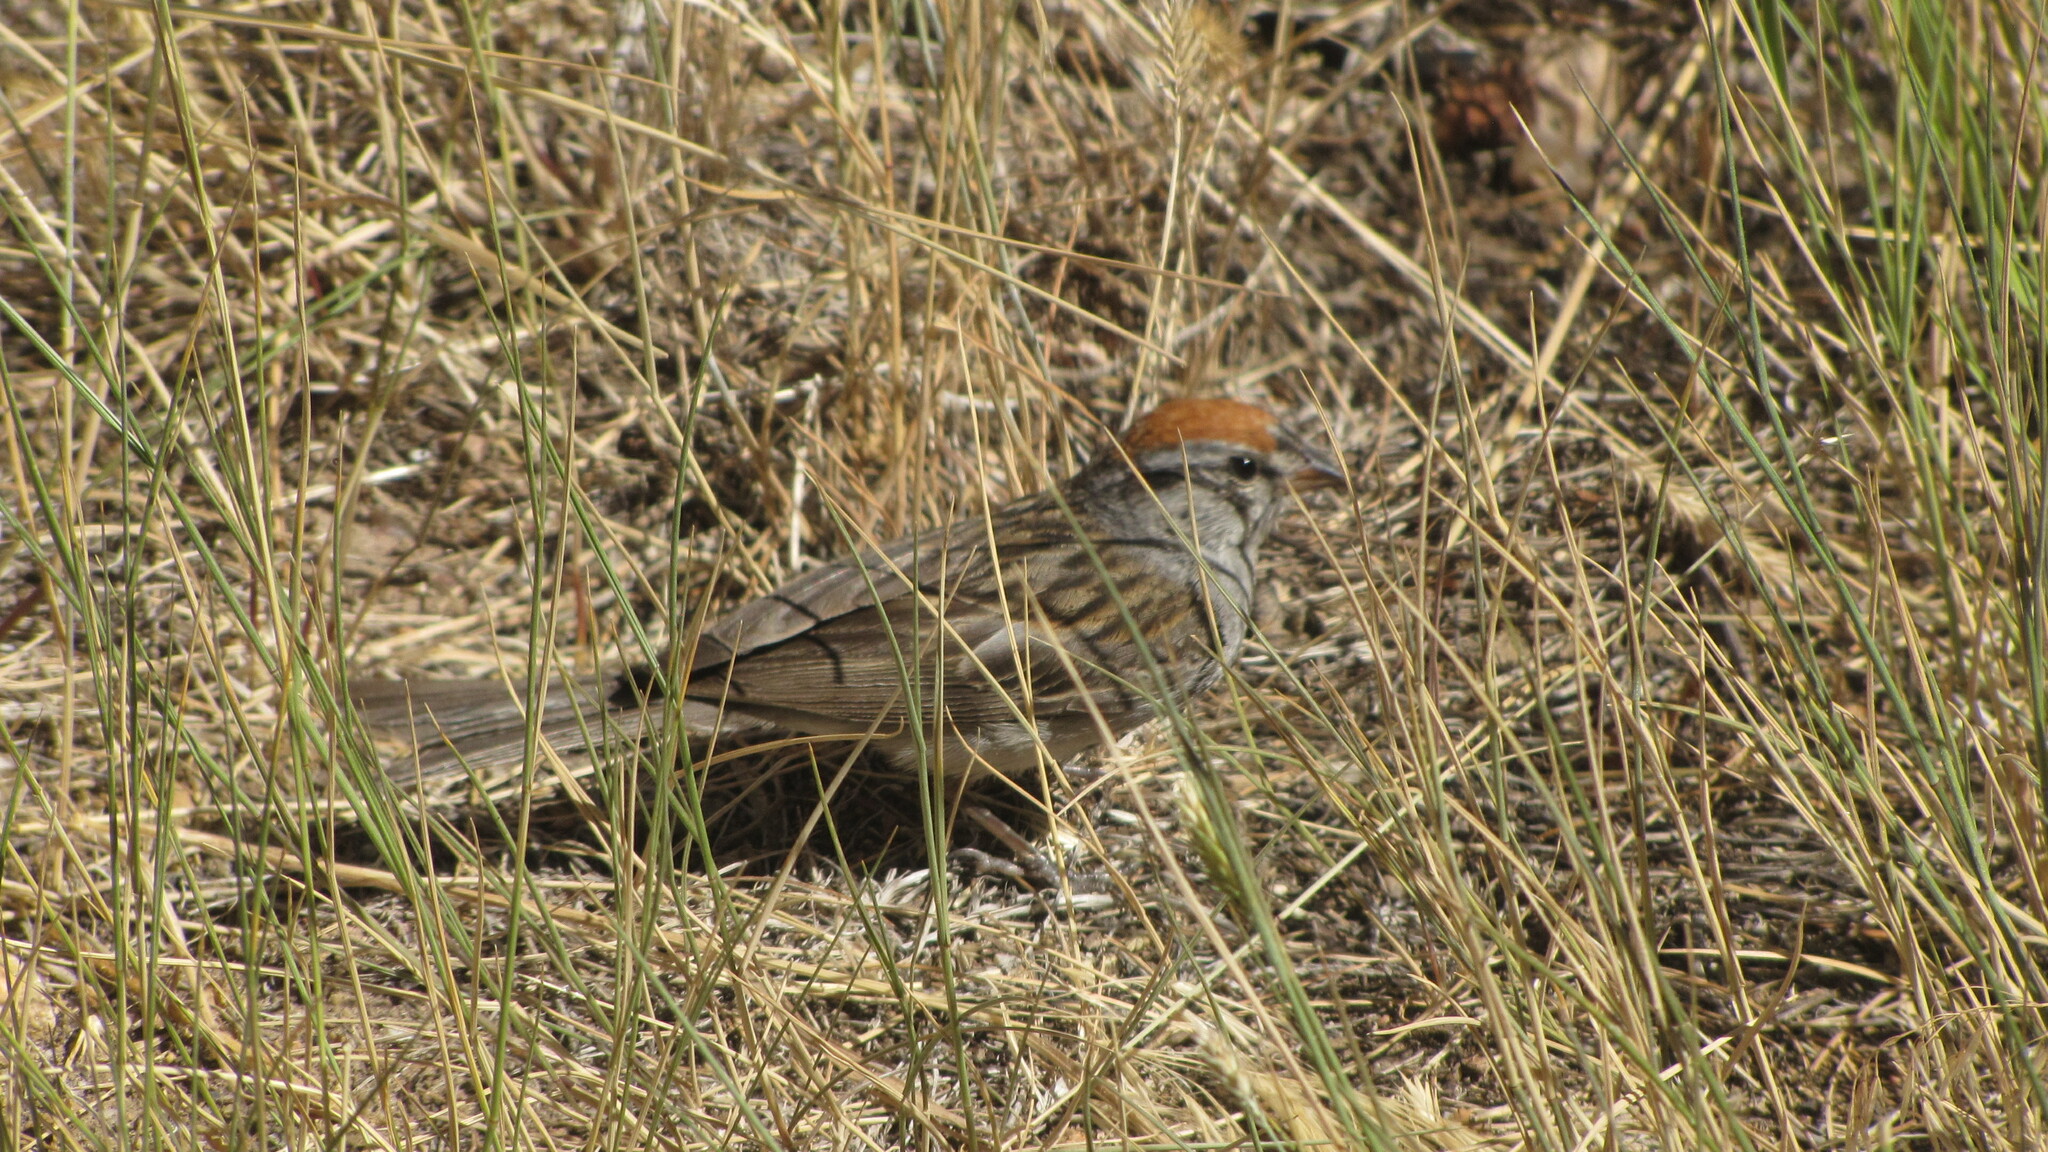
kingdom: Animalia
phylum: Chordata
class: Aves
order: Passeriformes
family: Passerellidae
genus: Spizella
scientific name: Spizella passerina
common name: Chipping sparrow
